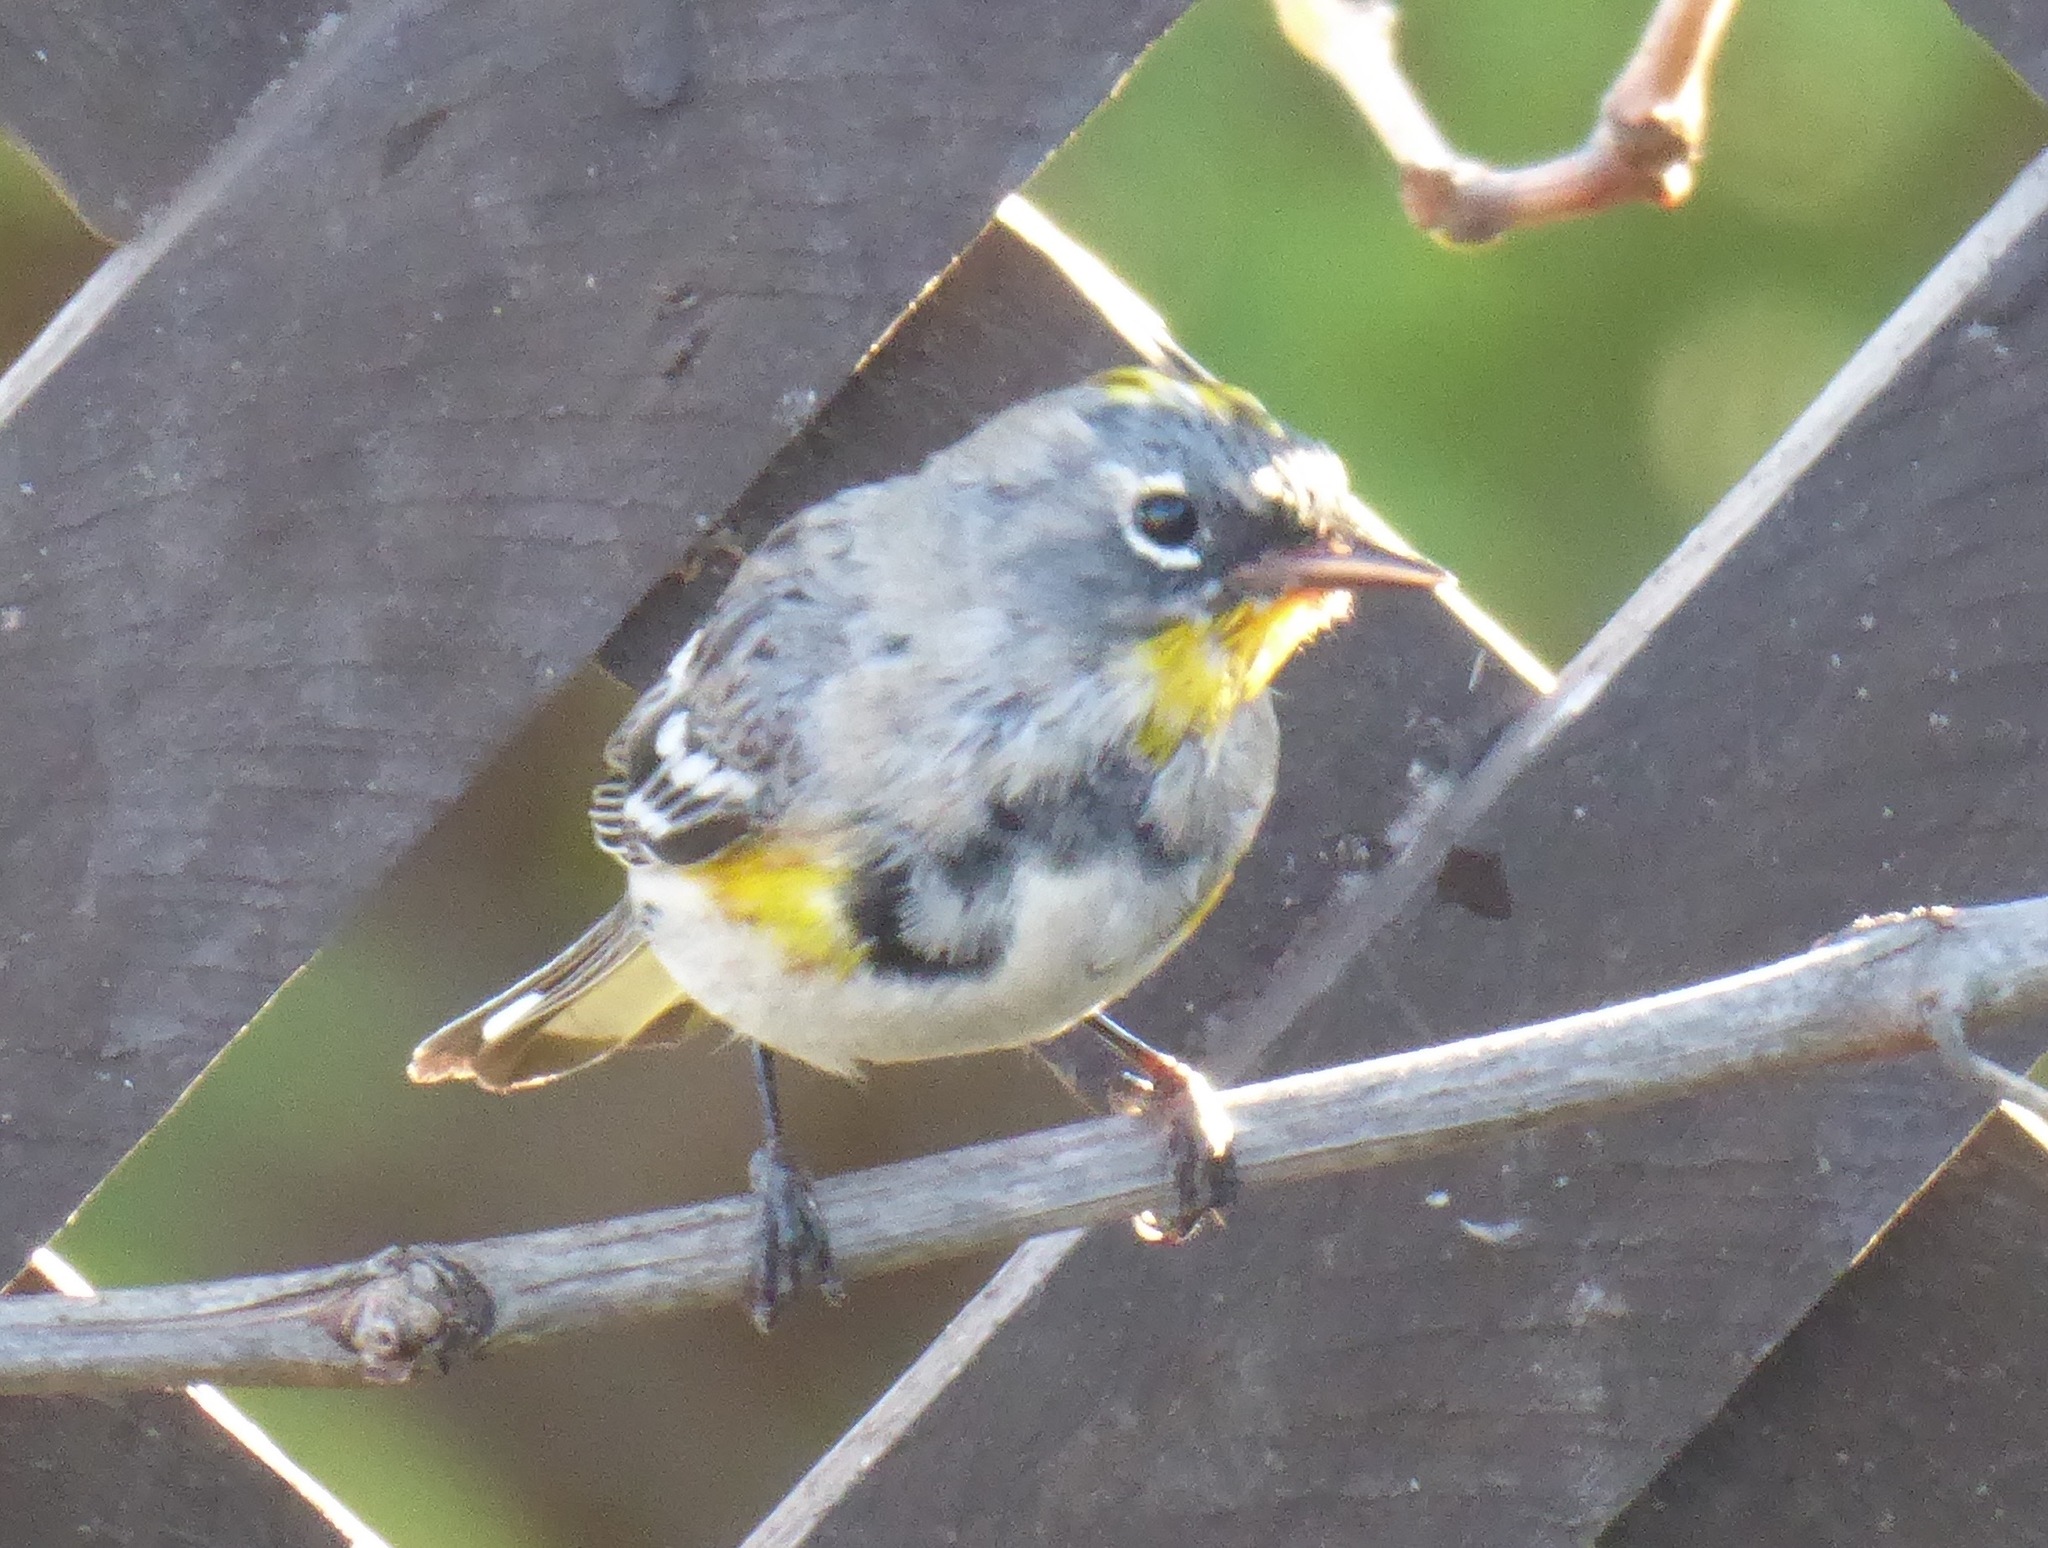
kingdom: Animalia
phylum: Chordata
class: Aves
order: Passeriformes
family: Parulidae
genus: Setophaga
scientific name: Setophaga auduboni
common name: Audubon's warbler
